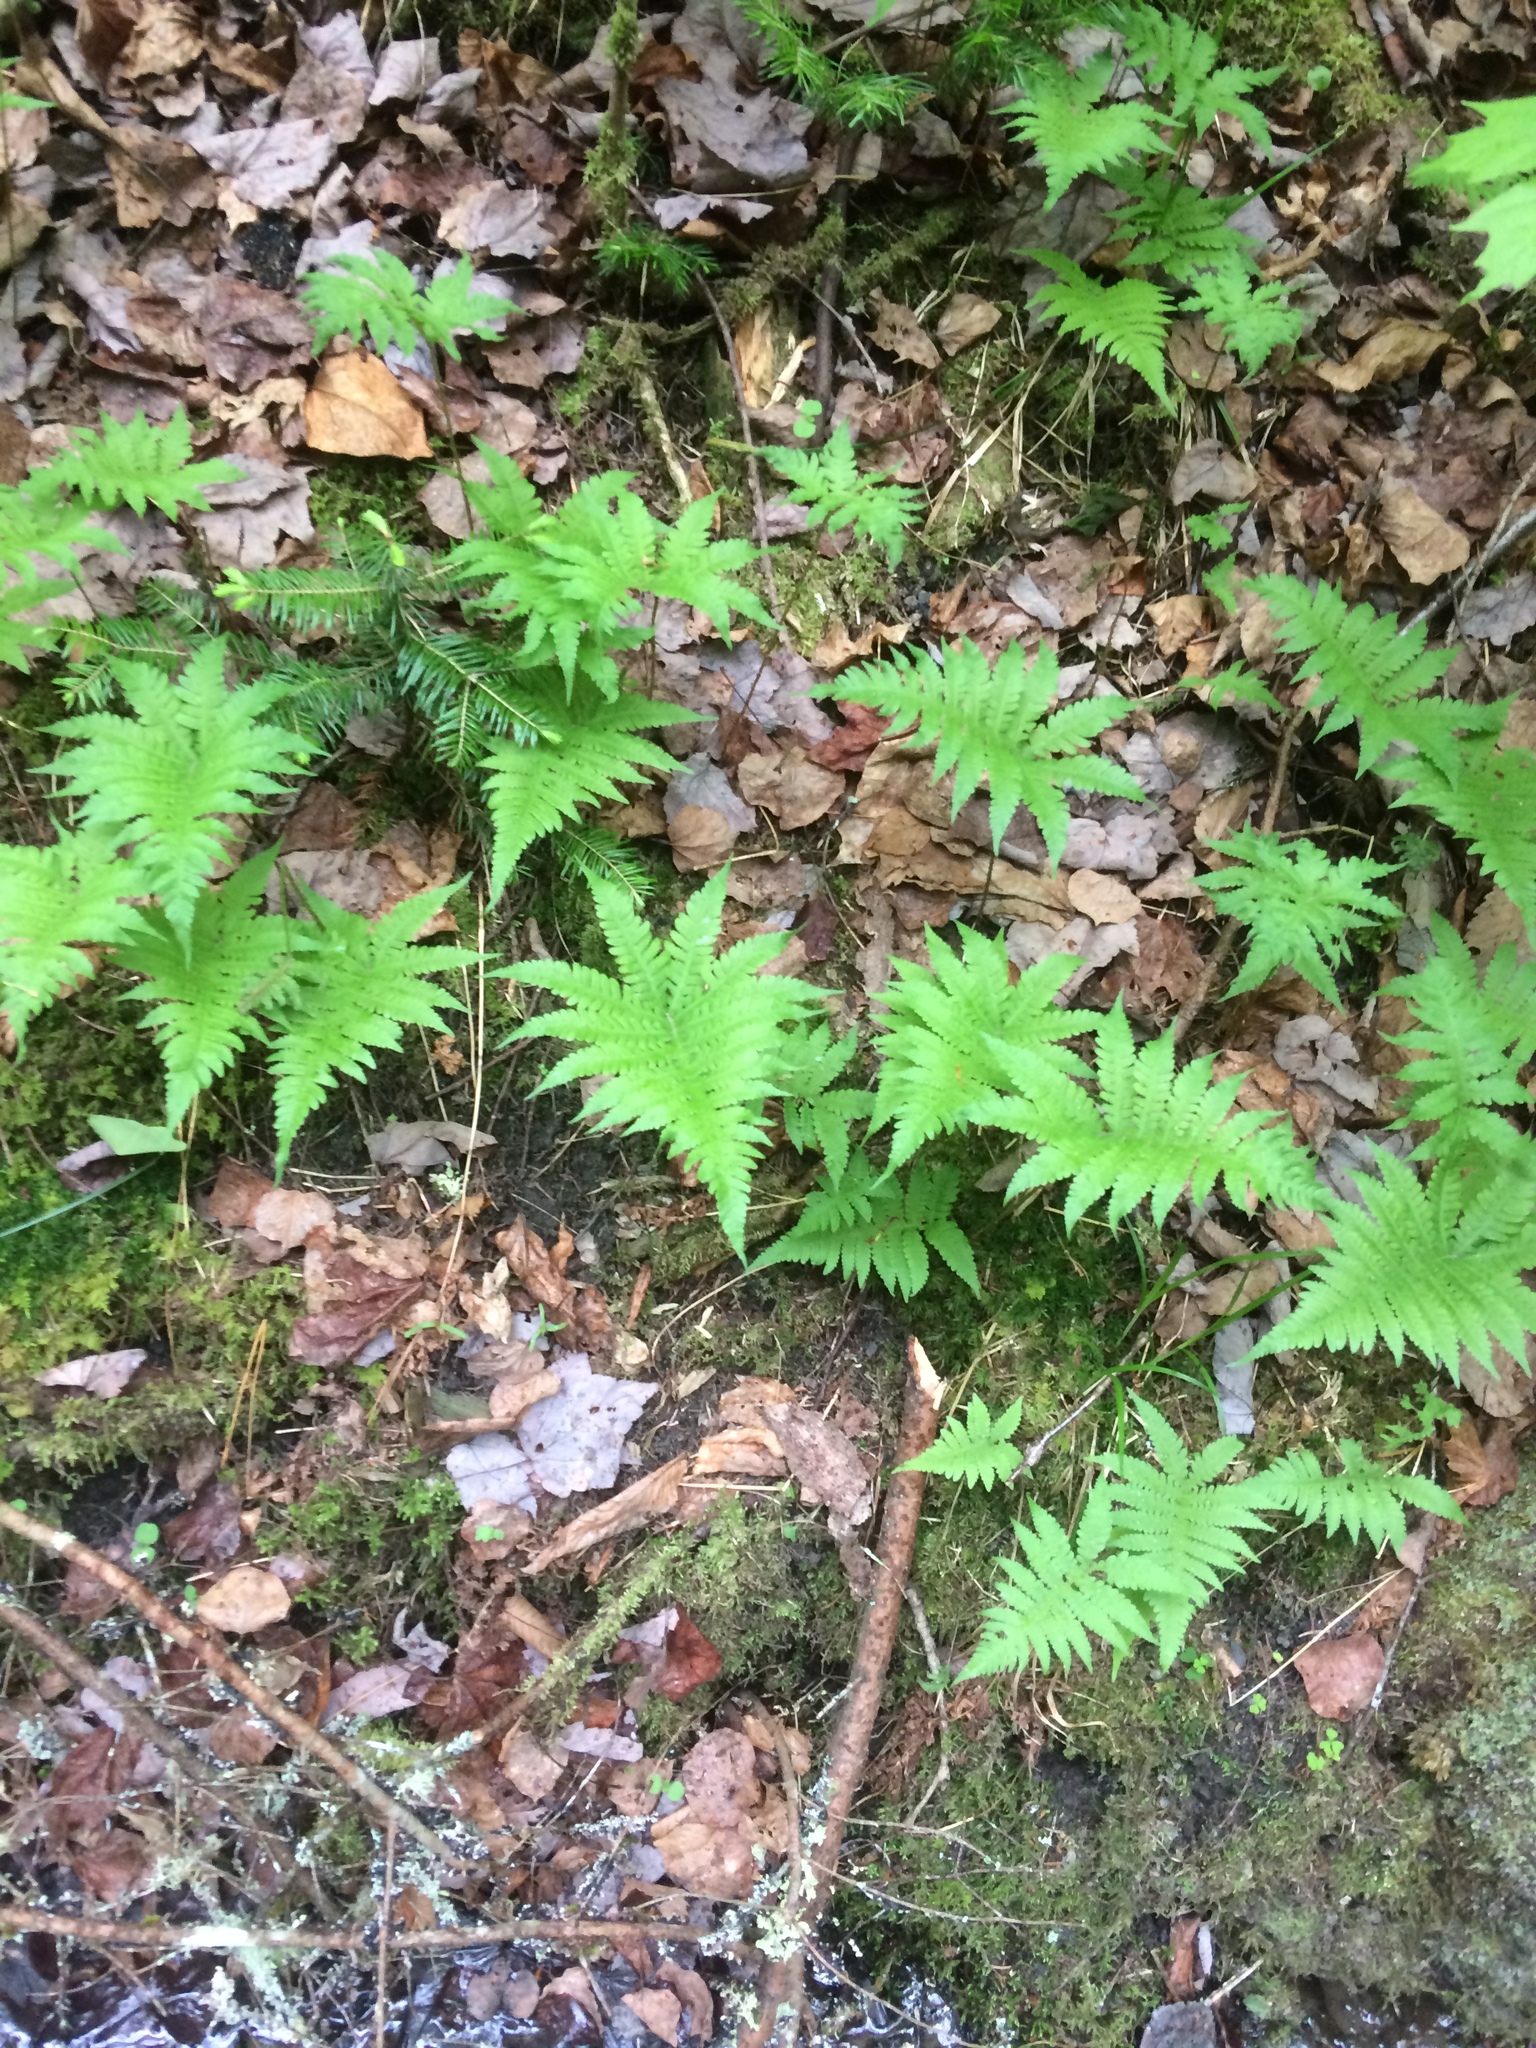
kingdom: Plantae
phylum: Tracheophyta
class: Polypodiopsida
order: Polypodiales
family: Thelypteridaceae
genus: Phegopteris
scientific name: Phegopteris connectilis
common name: Beech fern
